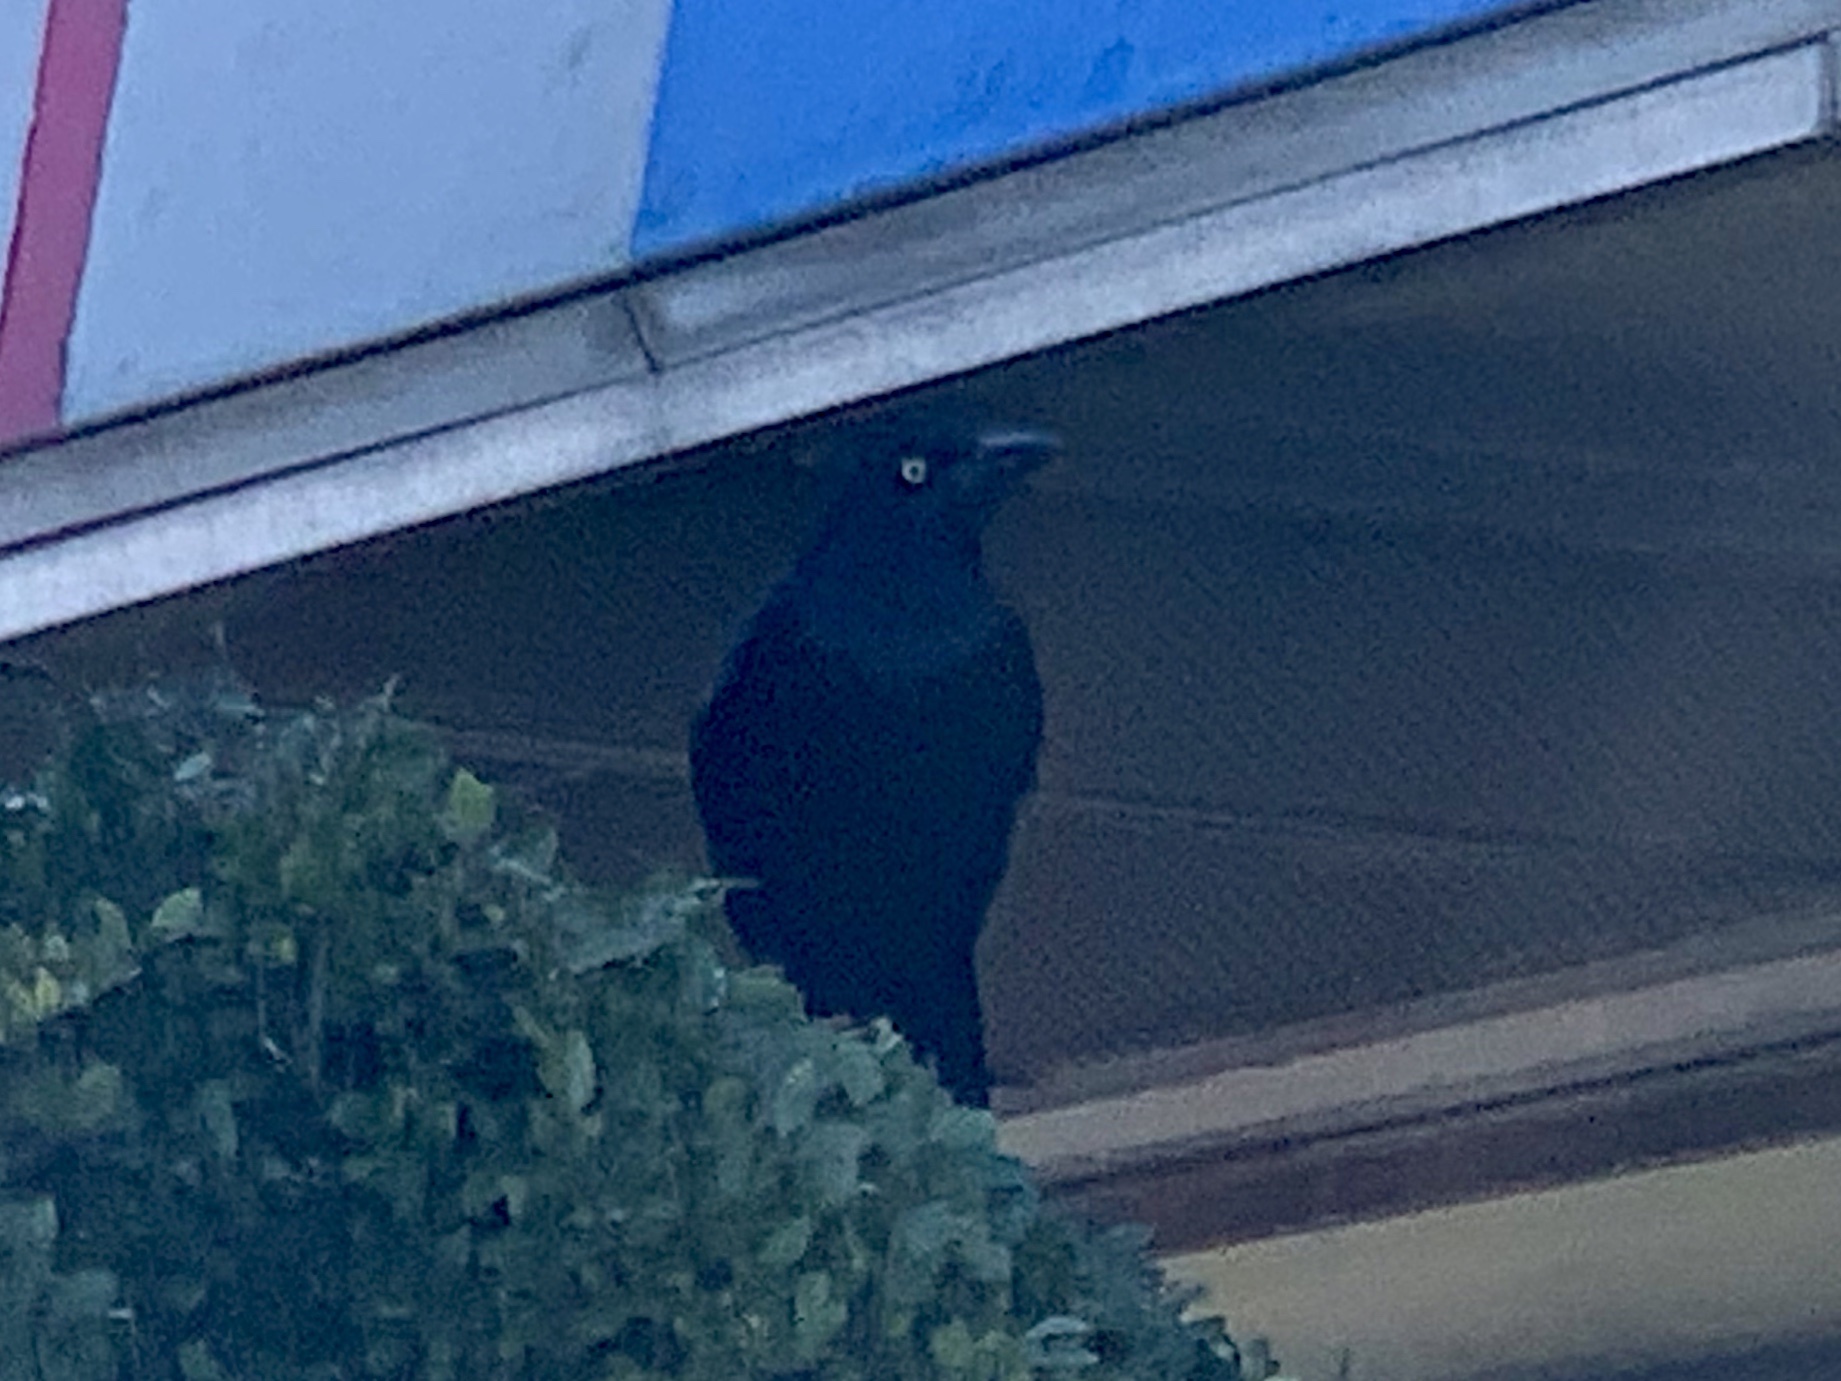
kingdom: Animalia
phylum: Chordata
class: Aves
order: Passeriformes
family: Icteridae
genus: Quiscalus
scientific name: Quiscalus mexicanus
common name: Great-tailed grackle
